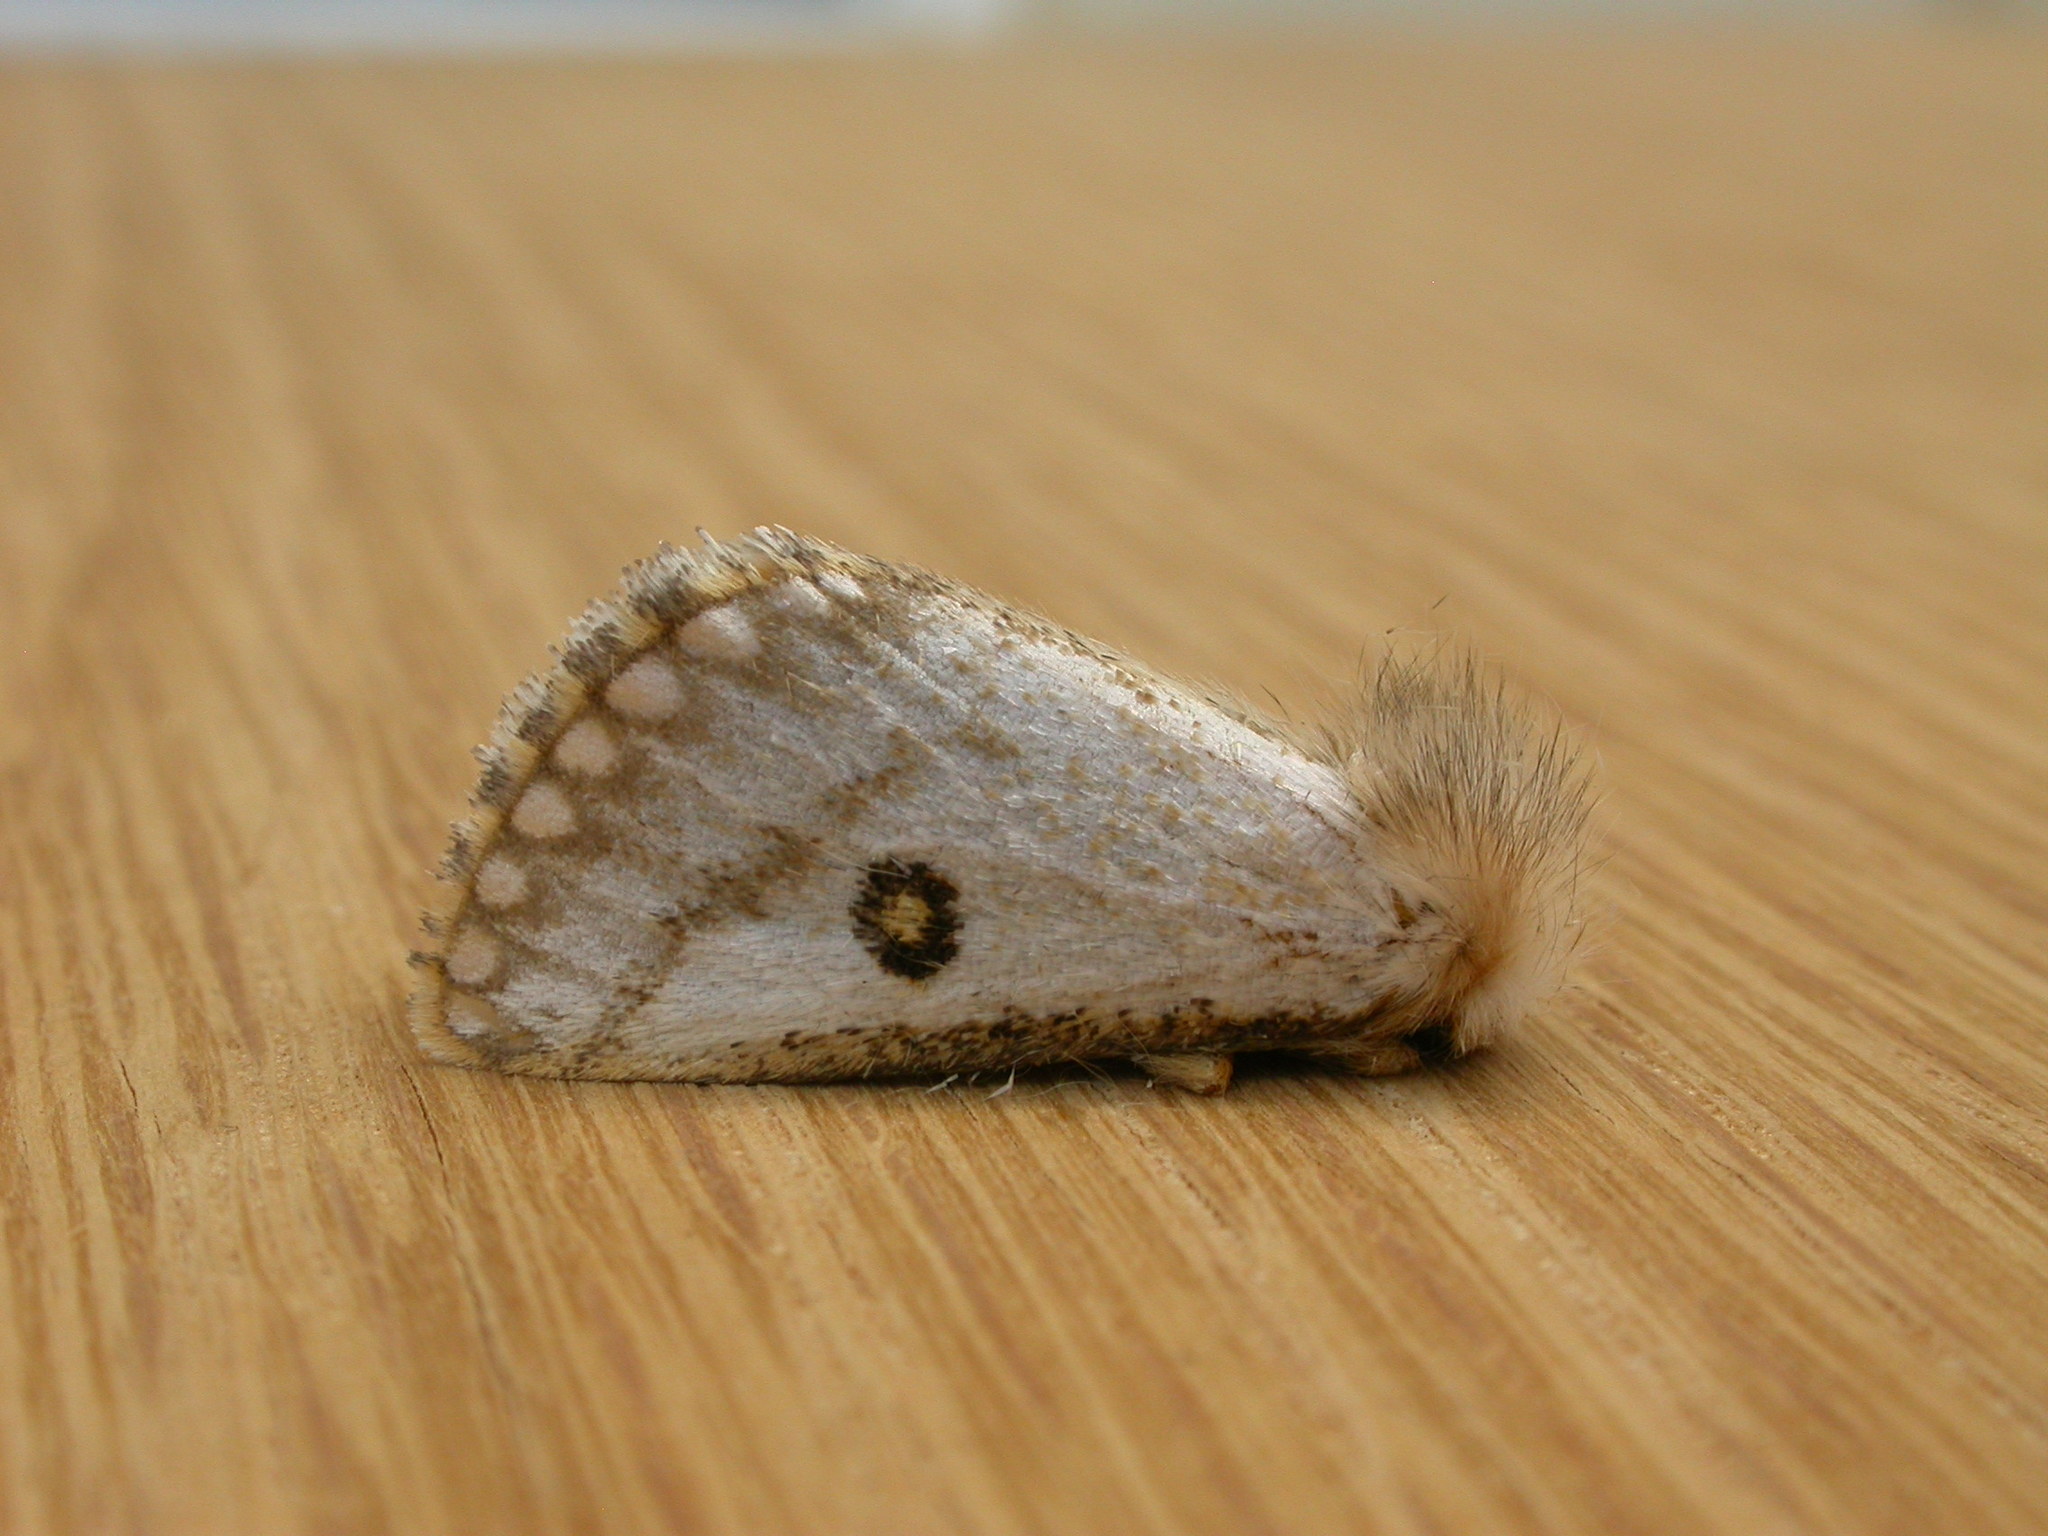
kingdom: Animalia
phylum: Arthropoda
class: Insecta
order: Lepidoptera
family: Notodontidae
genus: Epicoma
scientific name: Epicoma melanosticta
